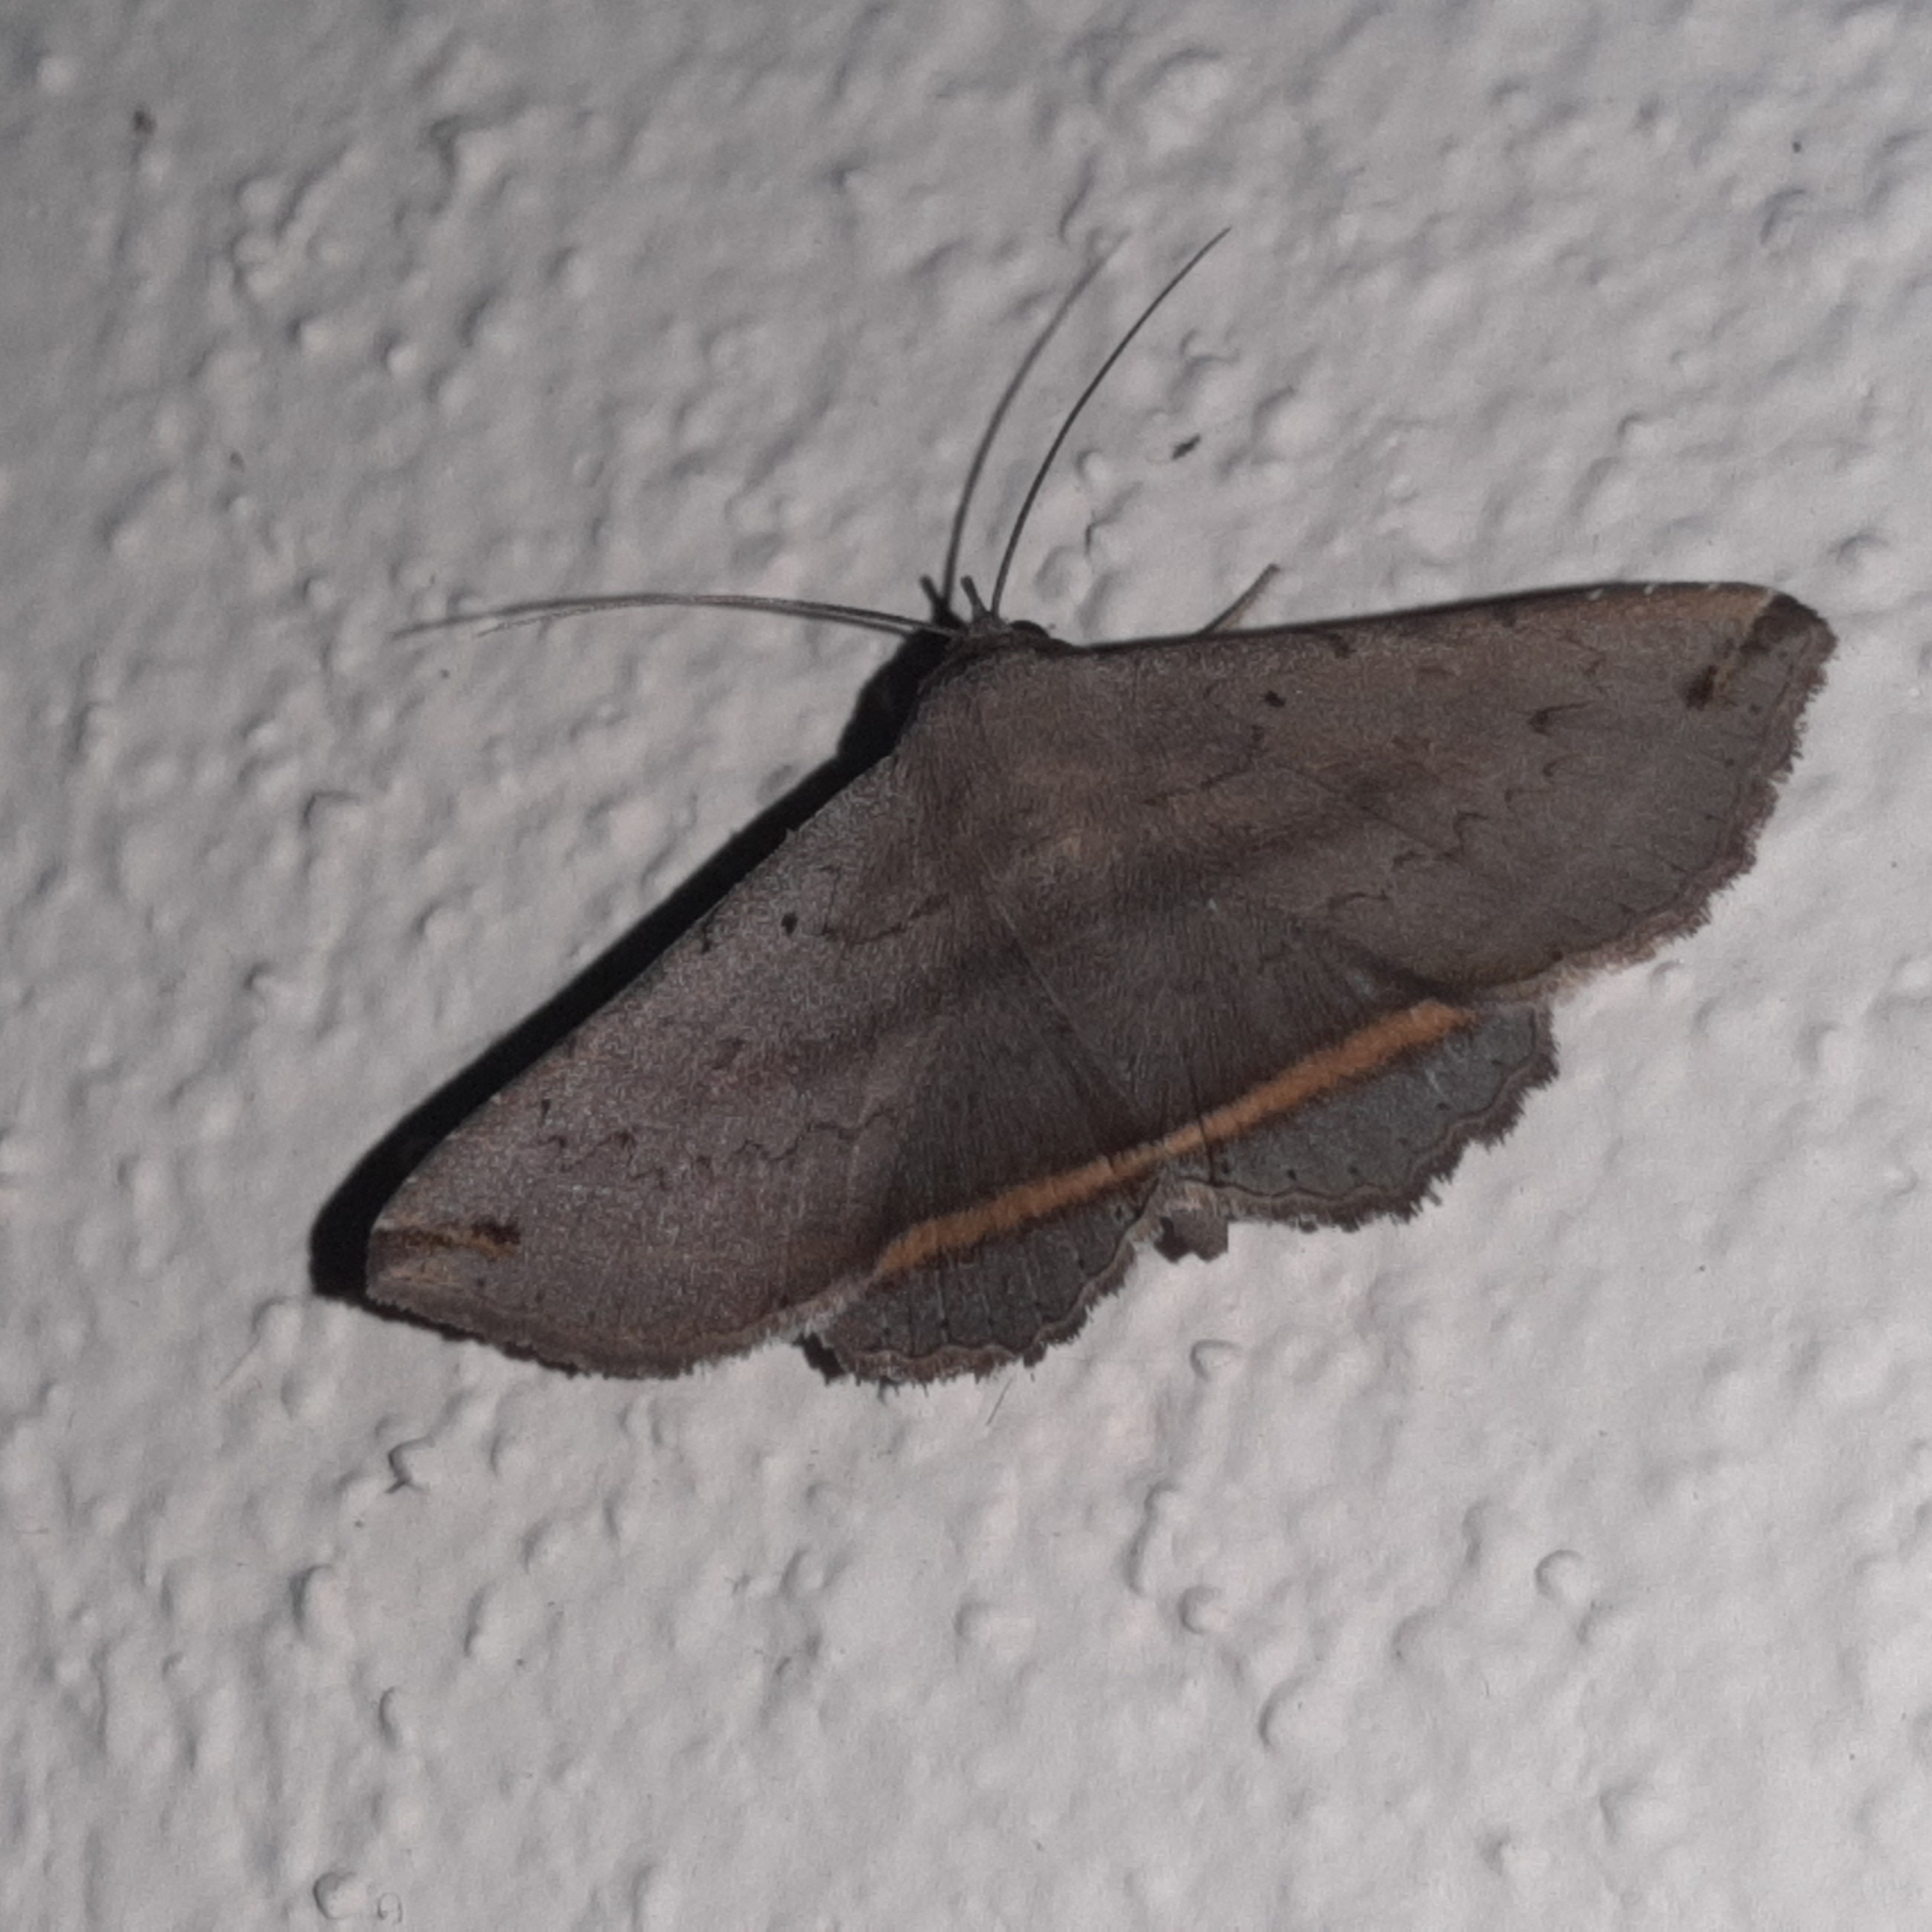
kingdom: Animalia
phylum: Arthropoda
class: Insecta
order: Lepidoptera
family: Erebidae
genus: Lesmone
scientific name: Lesmone formularis
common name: Lesmone moth
